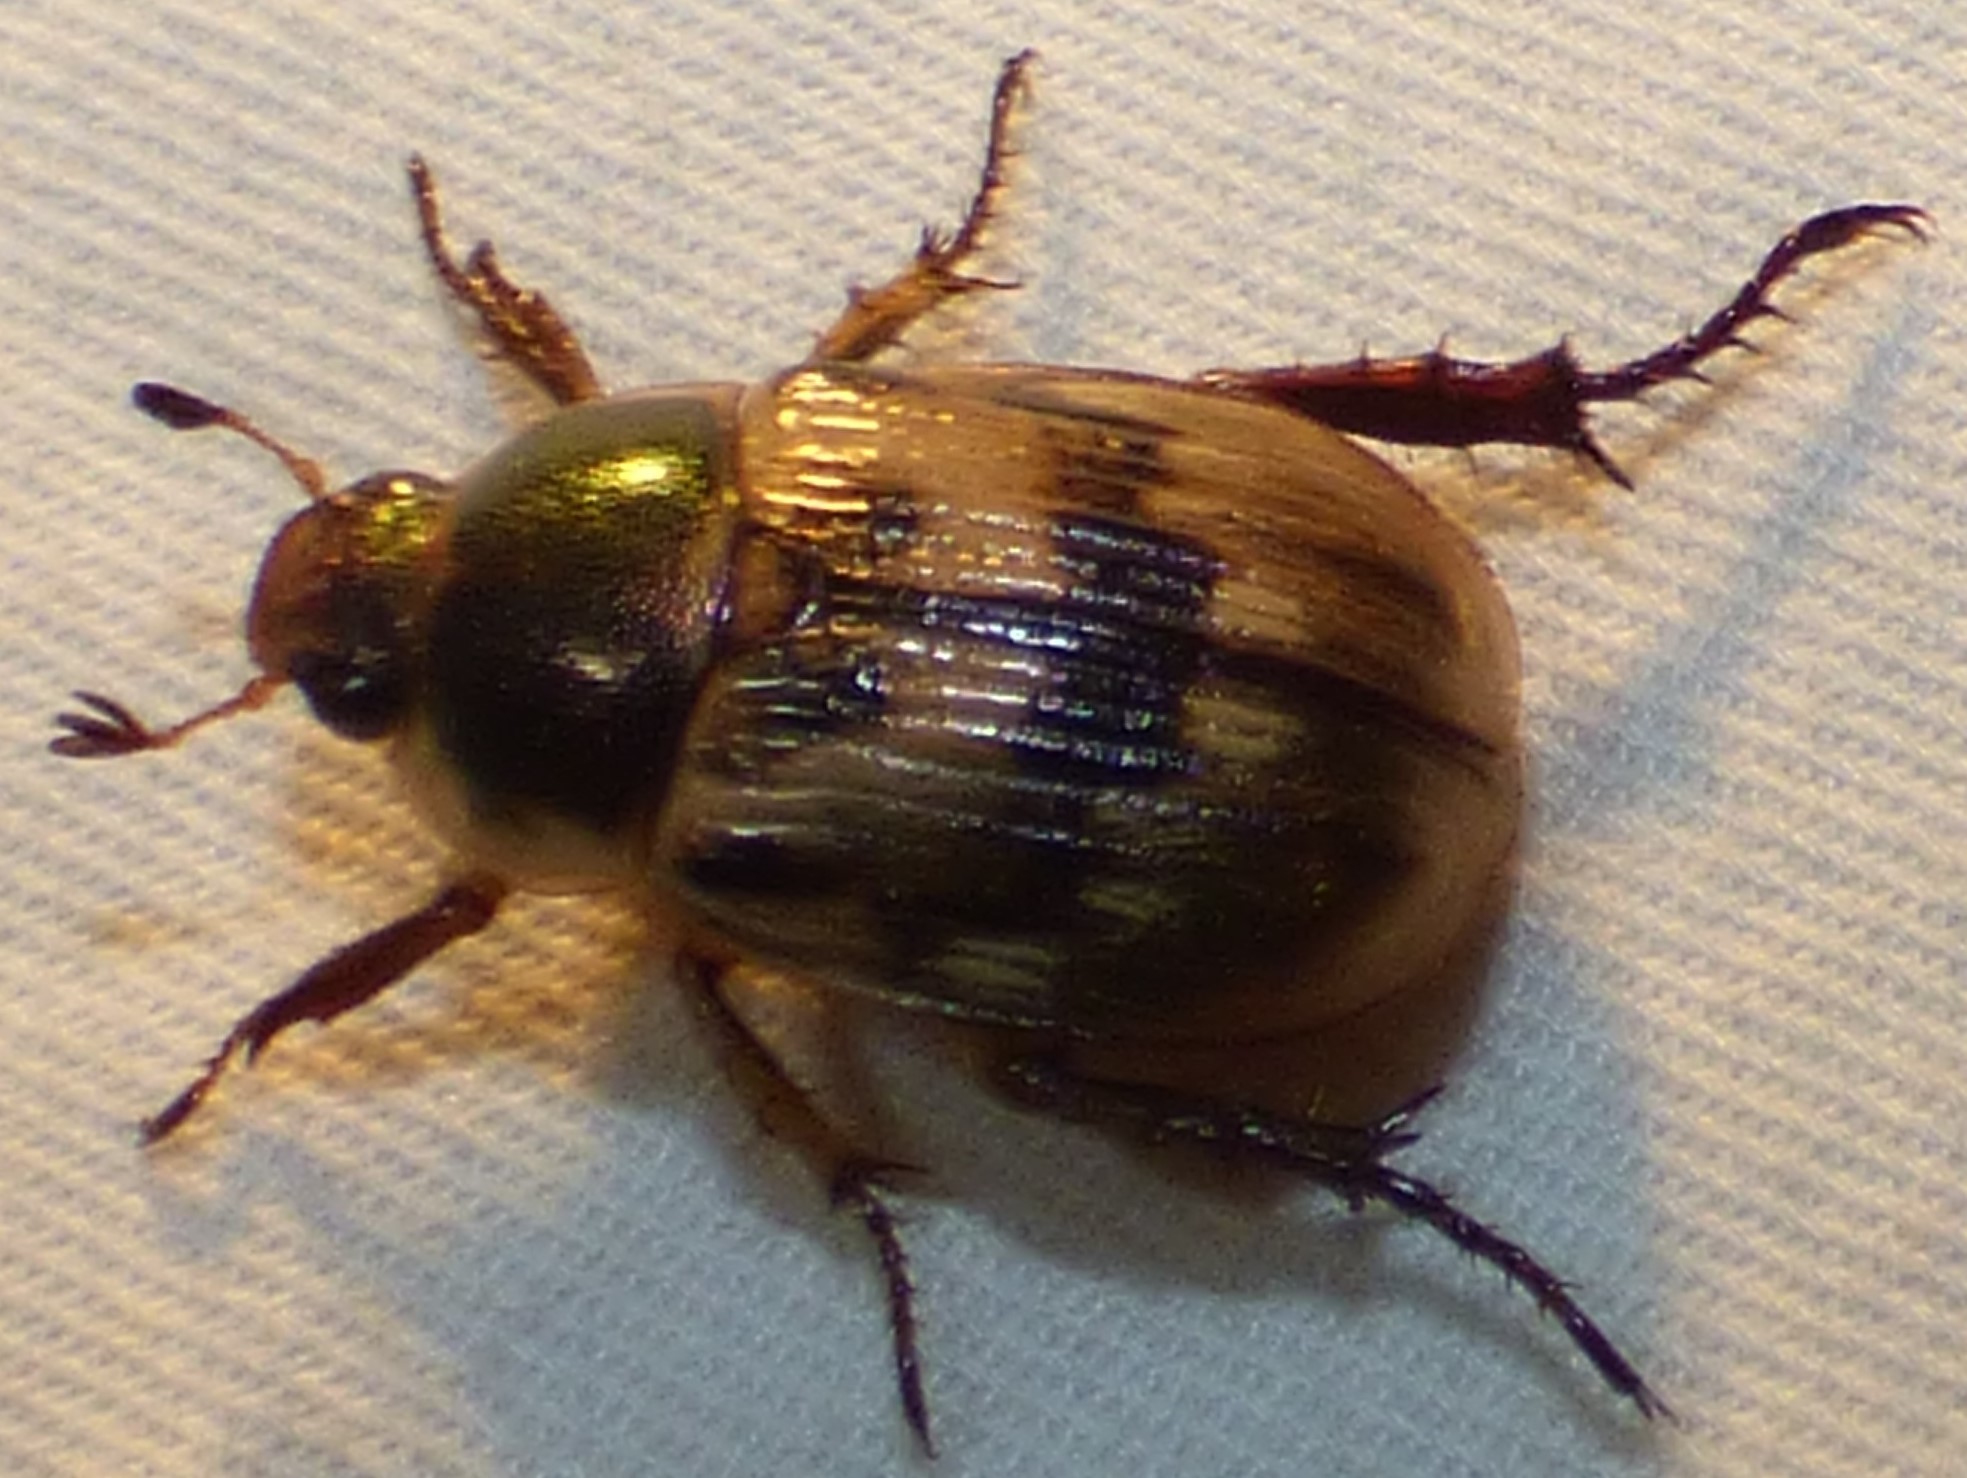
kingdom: Animalia
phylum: Arthropoda
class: Insecta
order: Coleoptera
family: Scarabaeidae
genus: Exomala
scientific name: Exomala orientalis
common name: Oriental beetle
